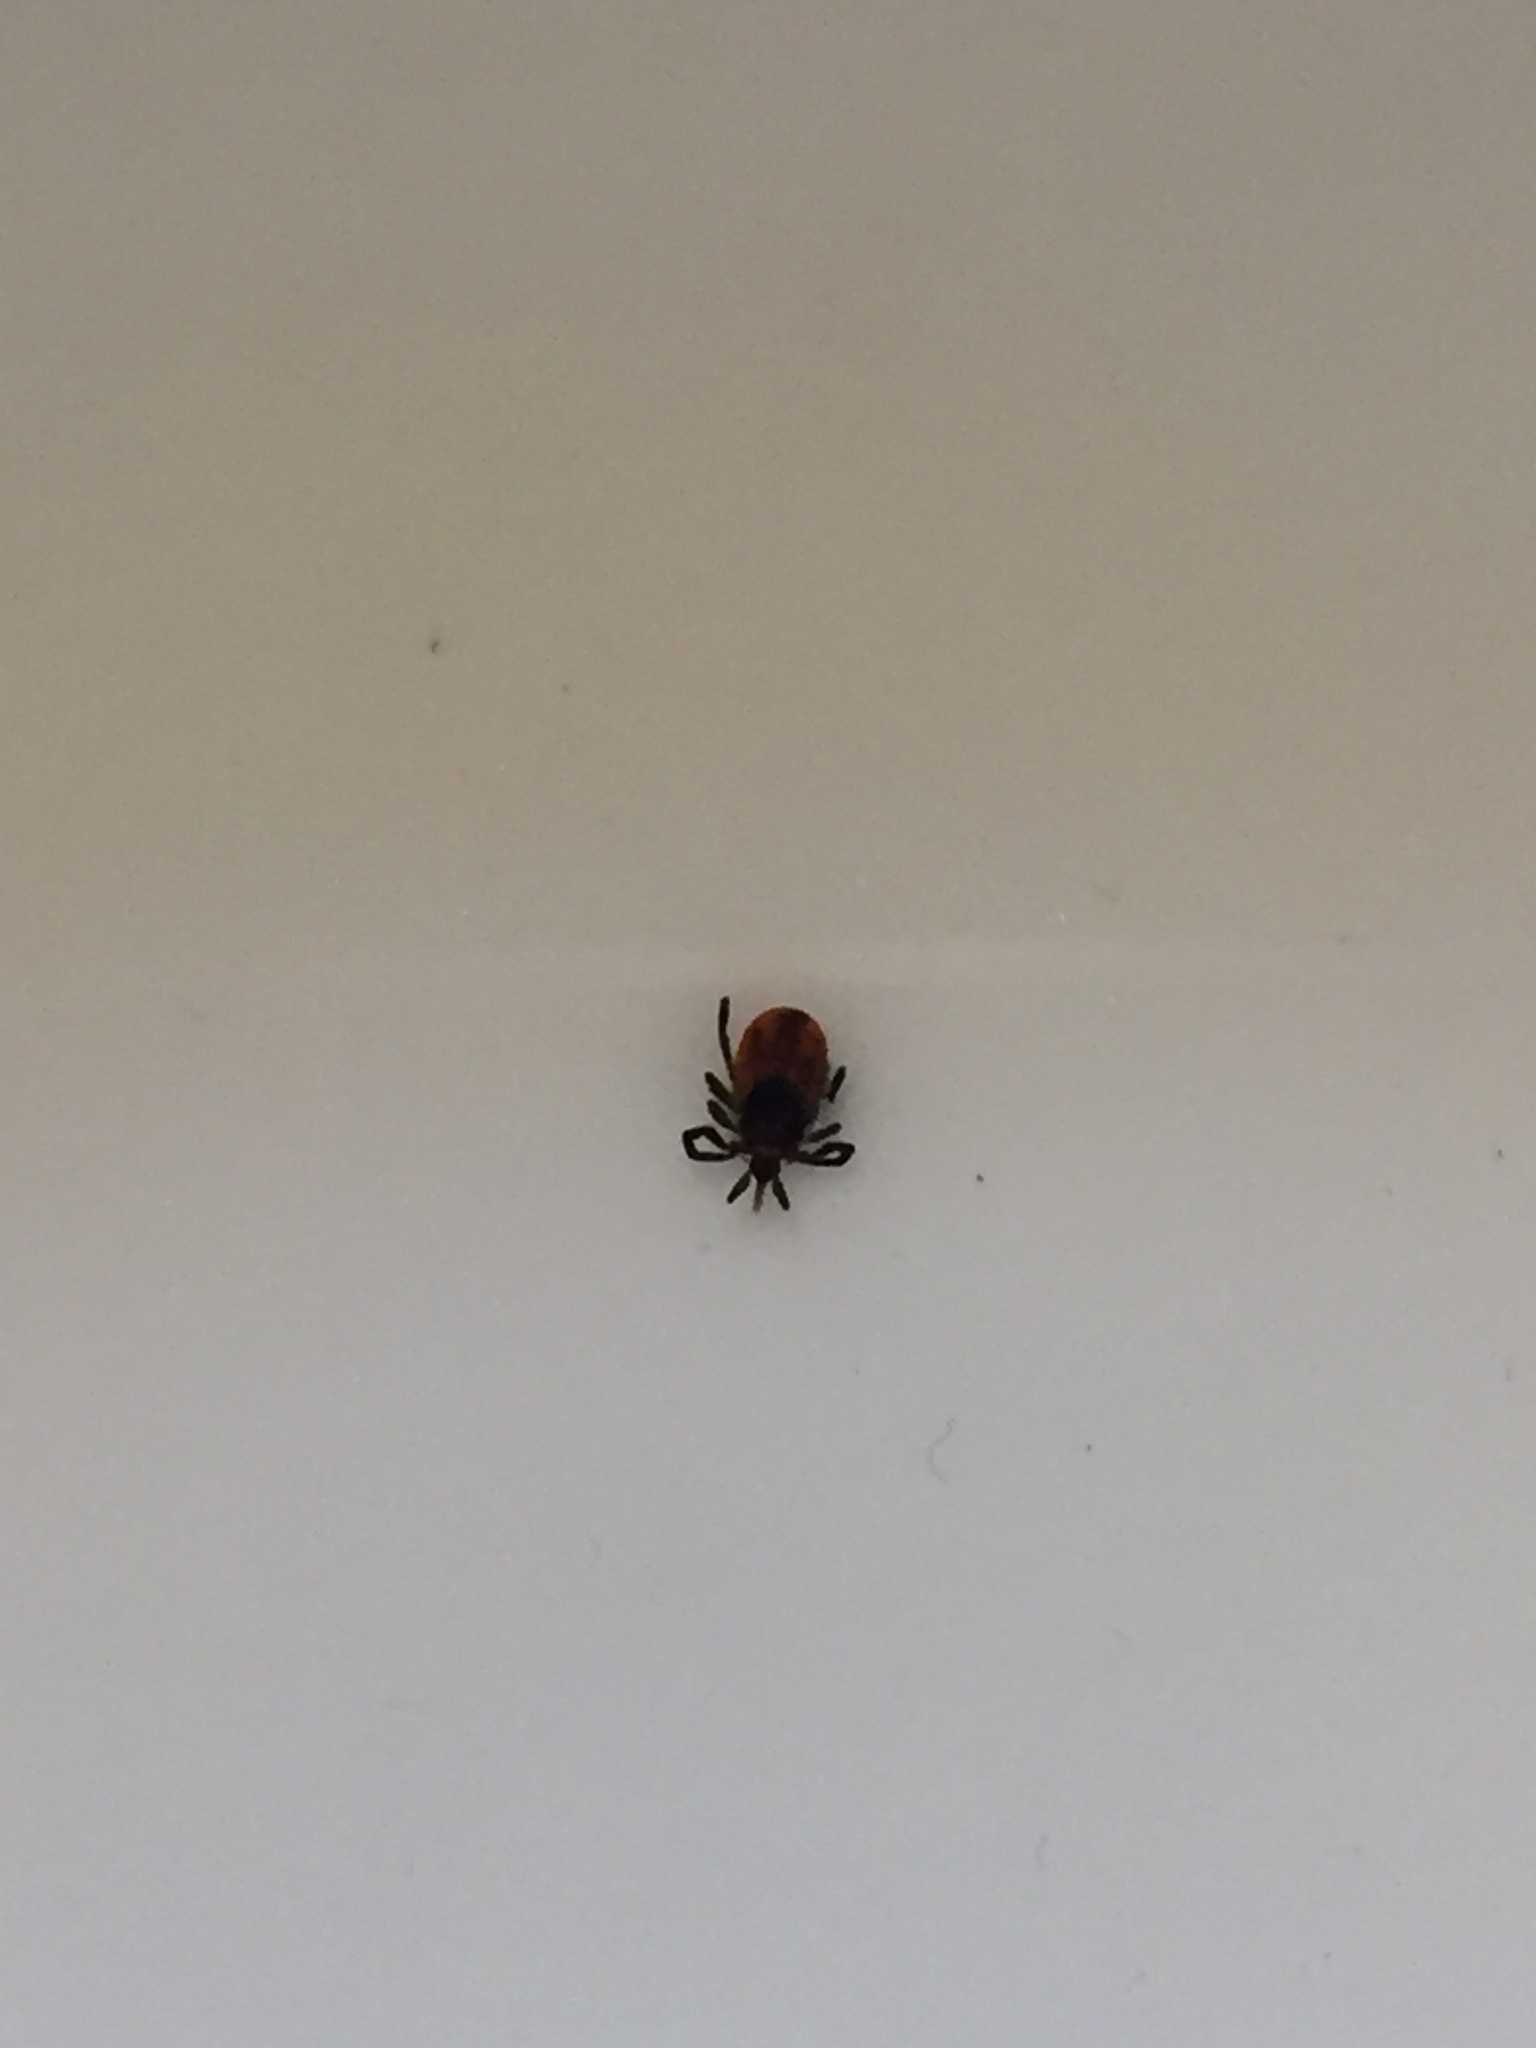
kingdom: Animalia
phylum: Arthropoda
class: Arachnida
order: Ixodida
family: Ixodidae
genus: Ixodes
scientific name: Ixodes scapularis
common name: Black legged tick
